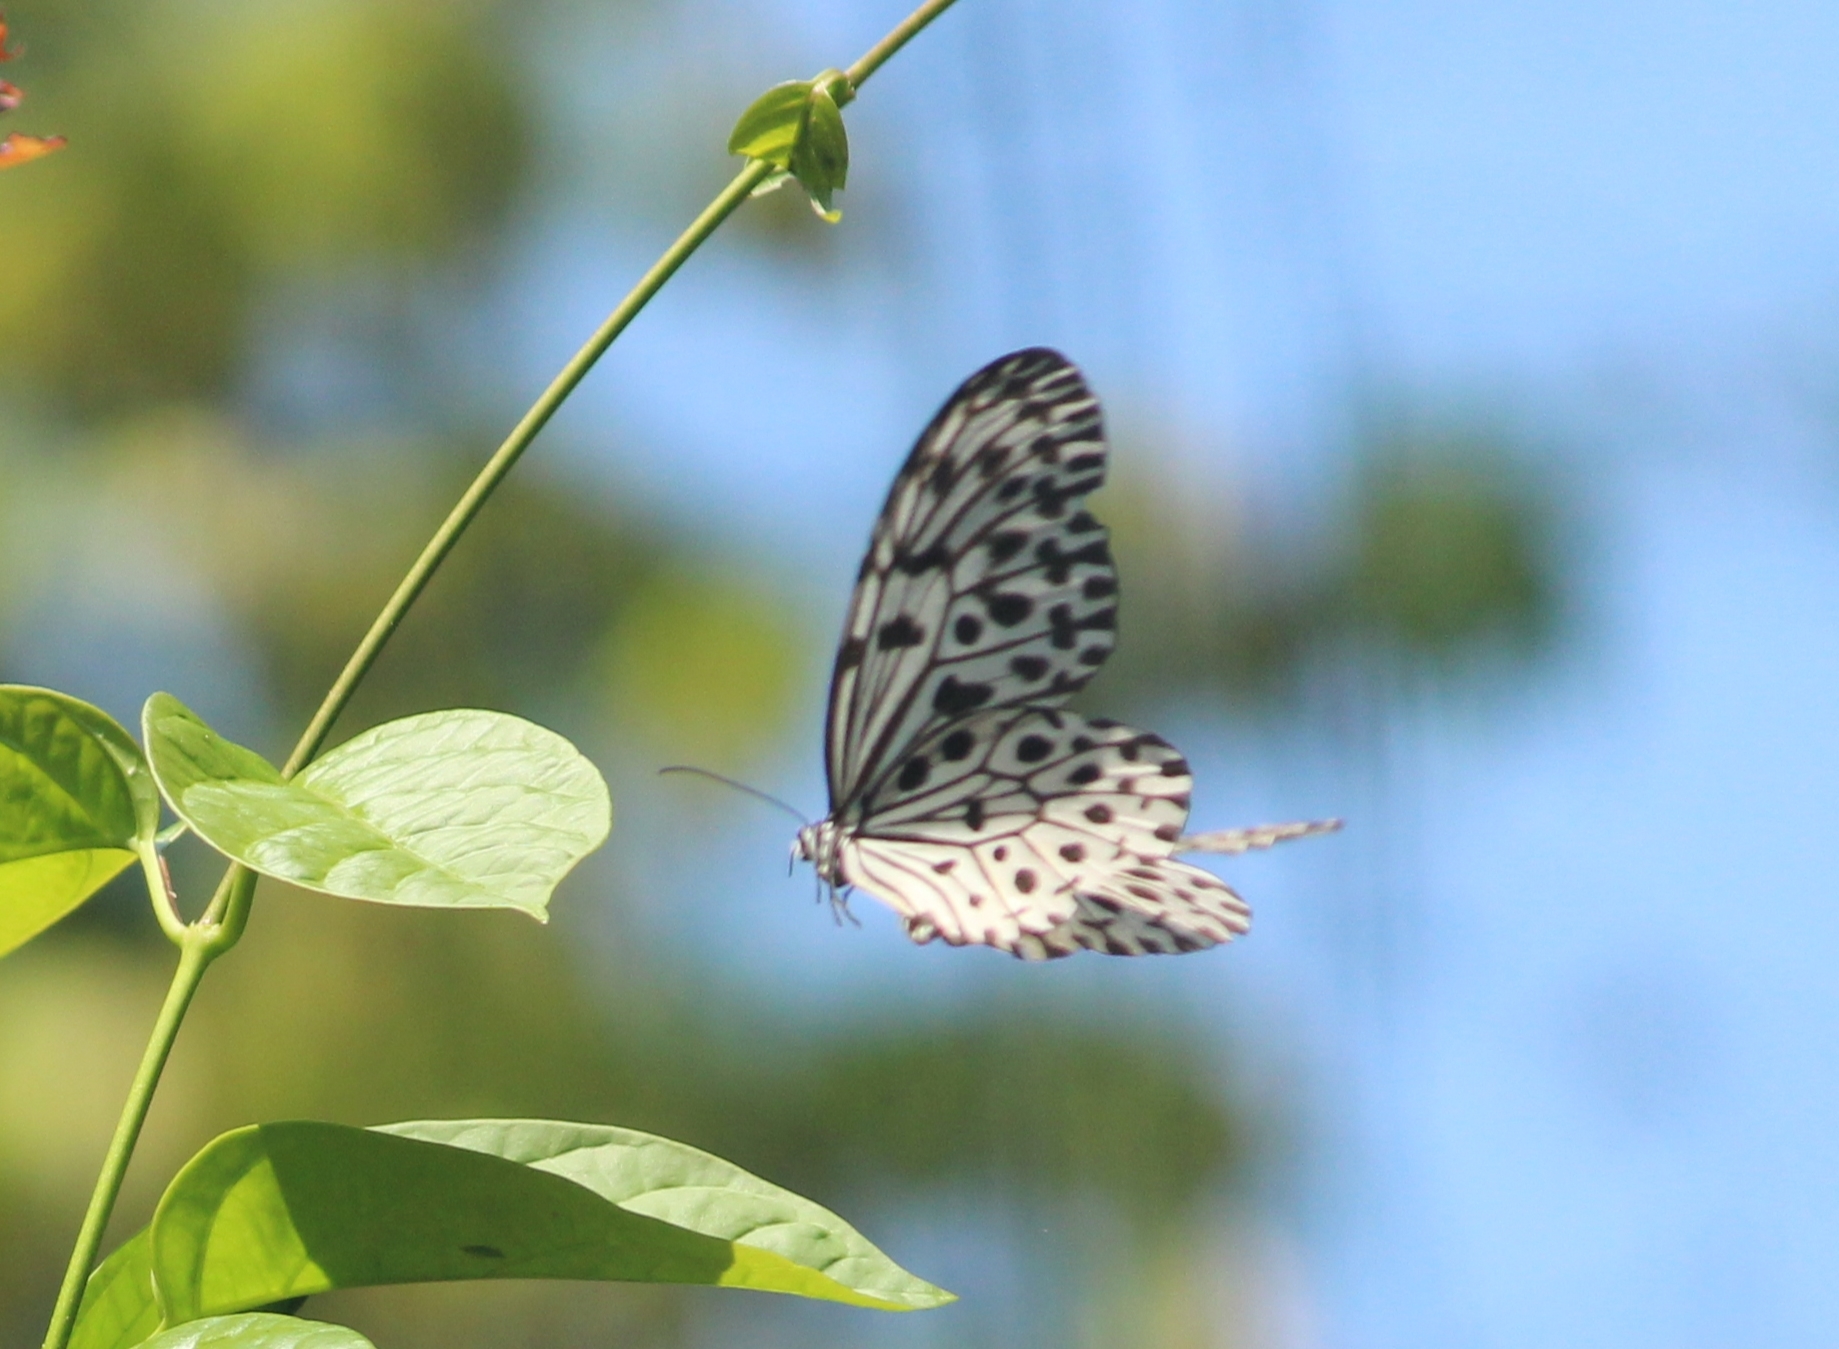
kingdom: Animalia
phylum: Arthropoda
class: Insecta
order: Lepidoptera
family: Nymphalidae
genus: Idea
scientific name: Idea malabarica
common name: Malabar tree-nymph
